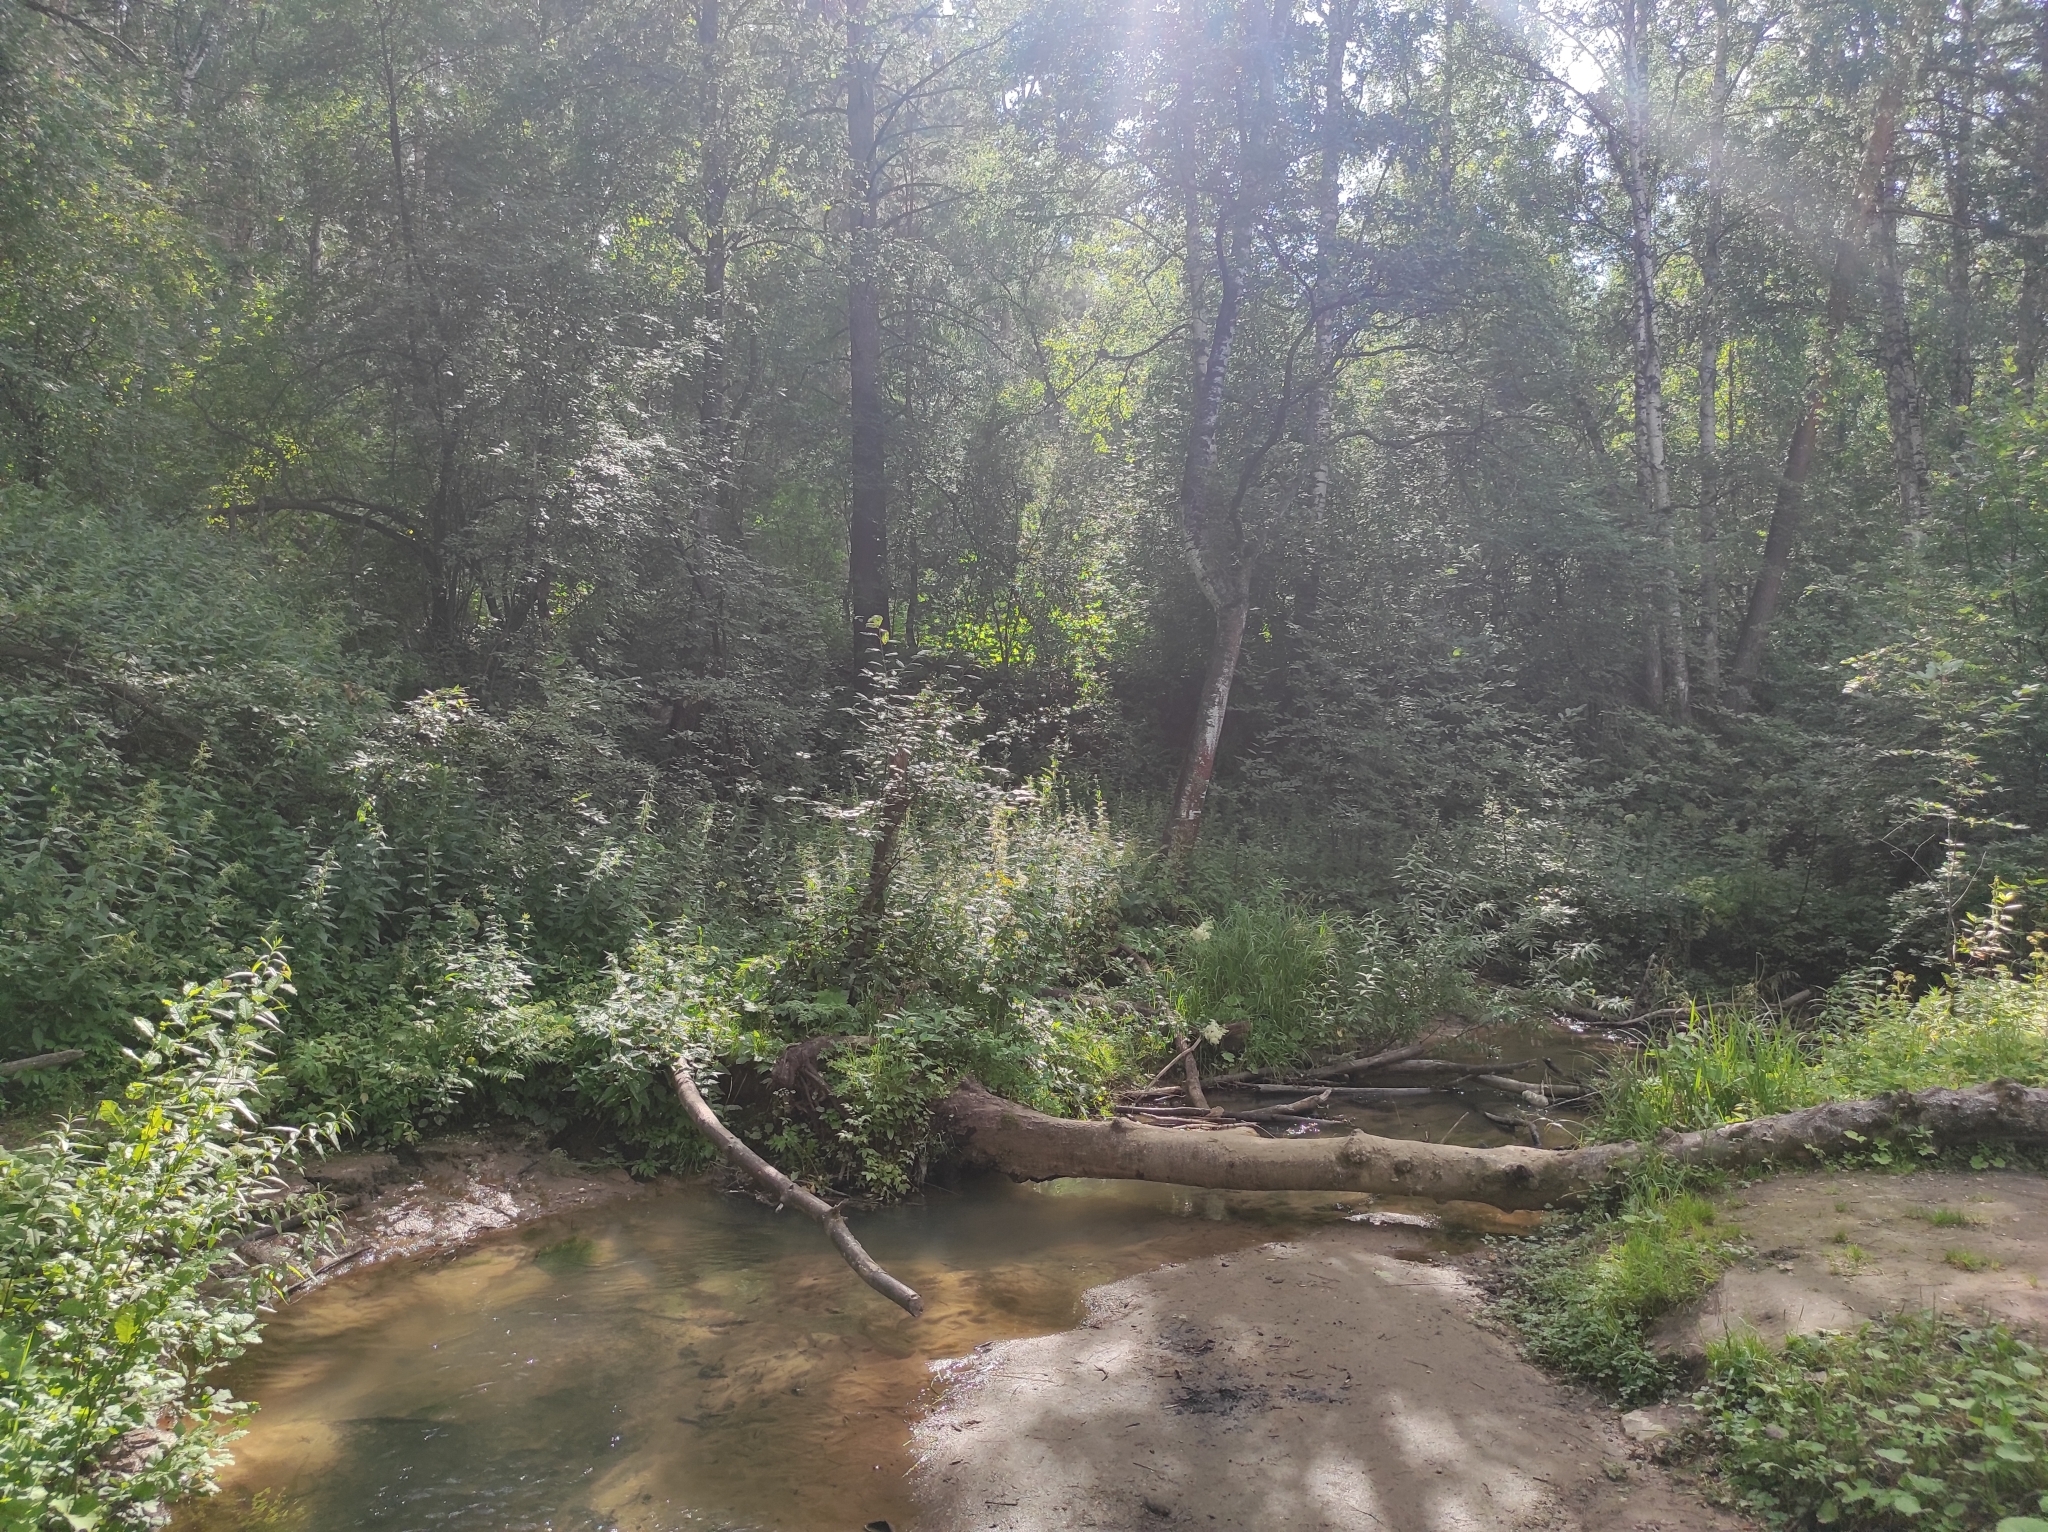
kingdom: Plantae
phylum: Tracheophyta
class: Pinopsida
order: Pinales
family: Pinaceae
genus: Pinus
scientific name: Pinus sylvestris
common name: Scots pine
